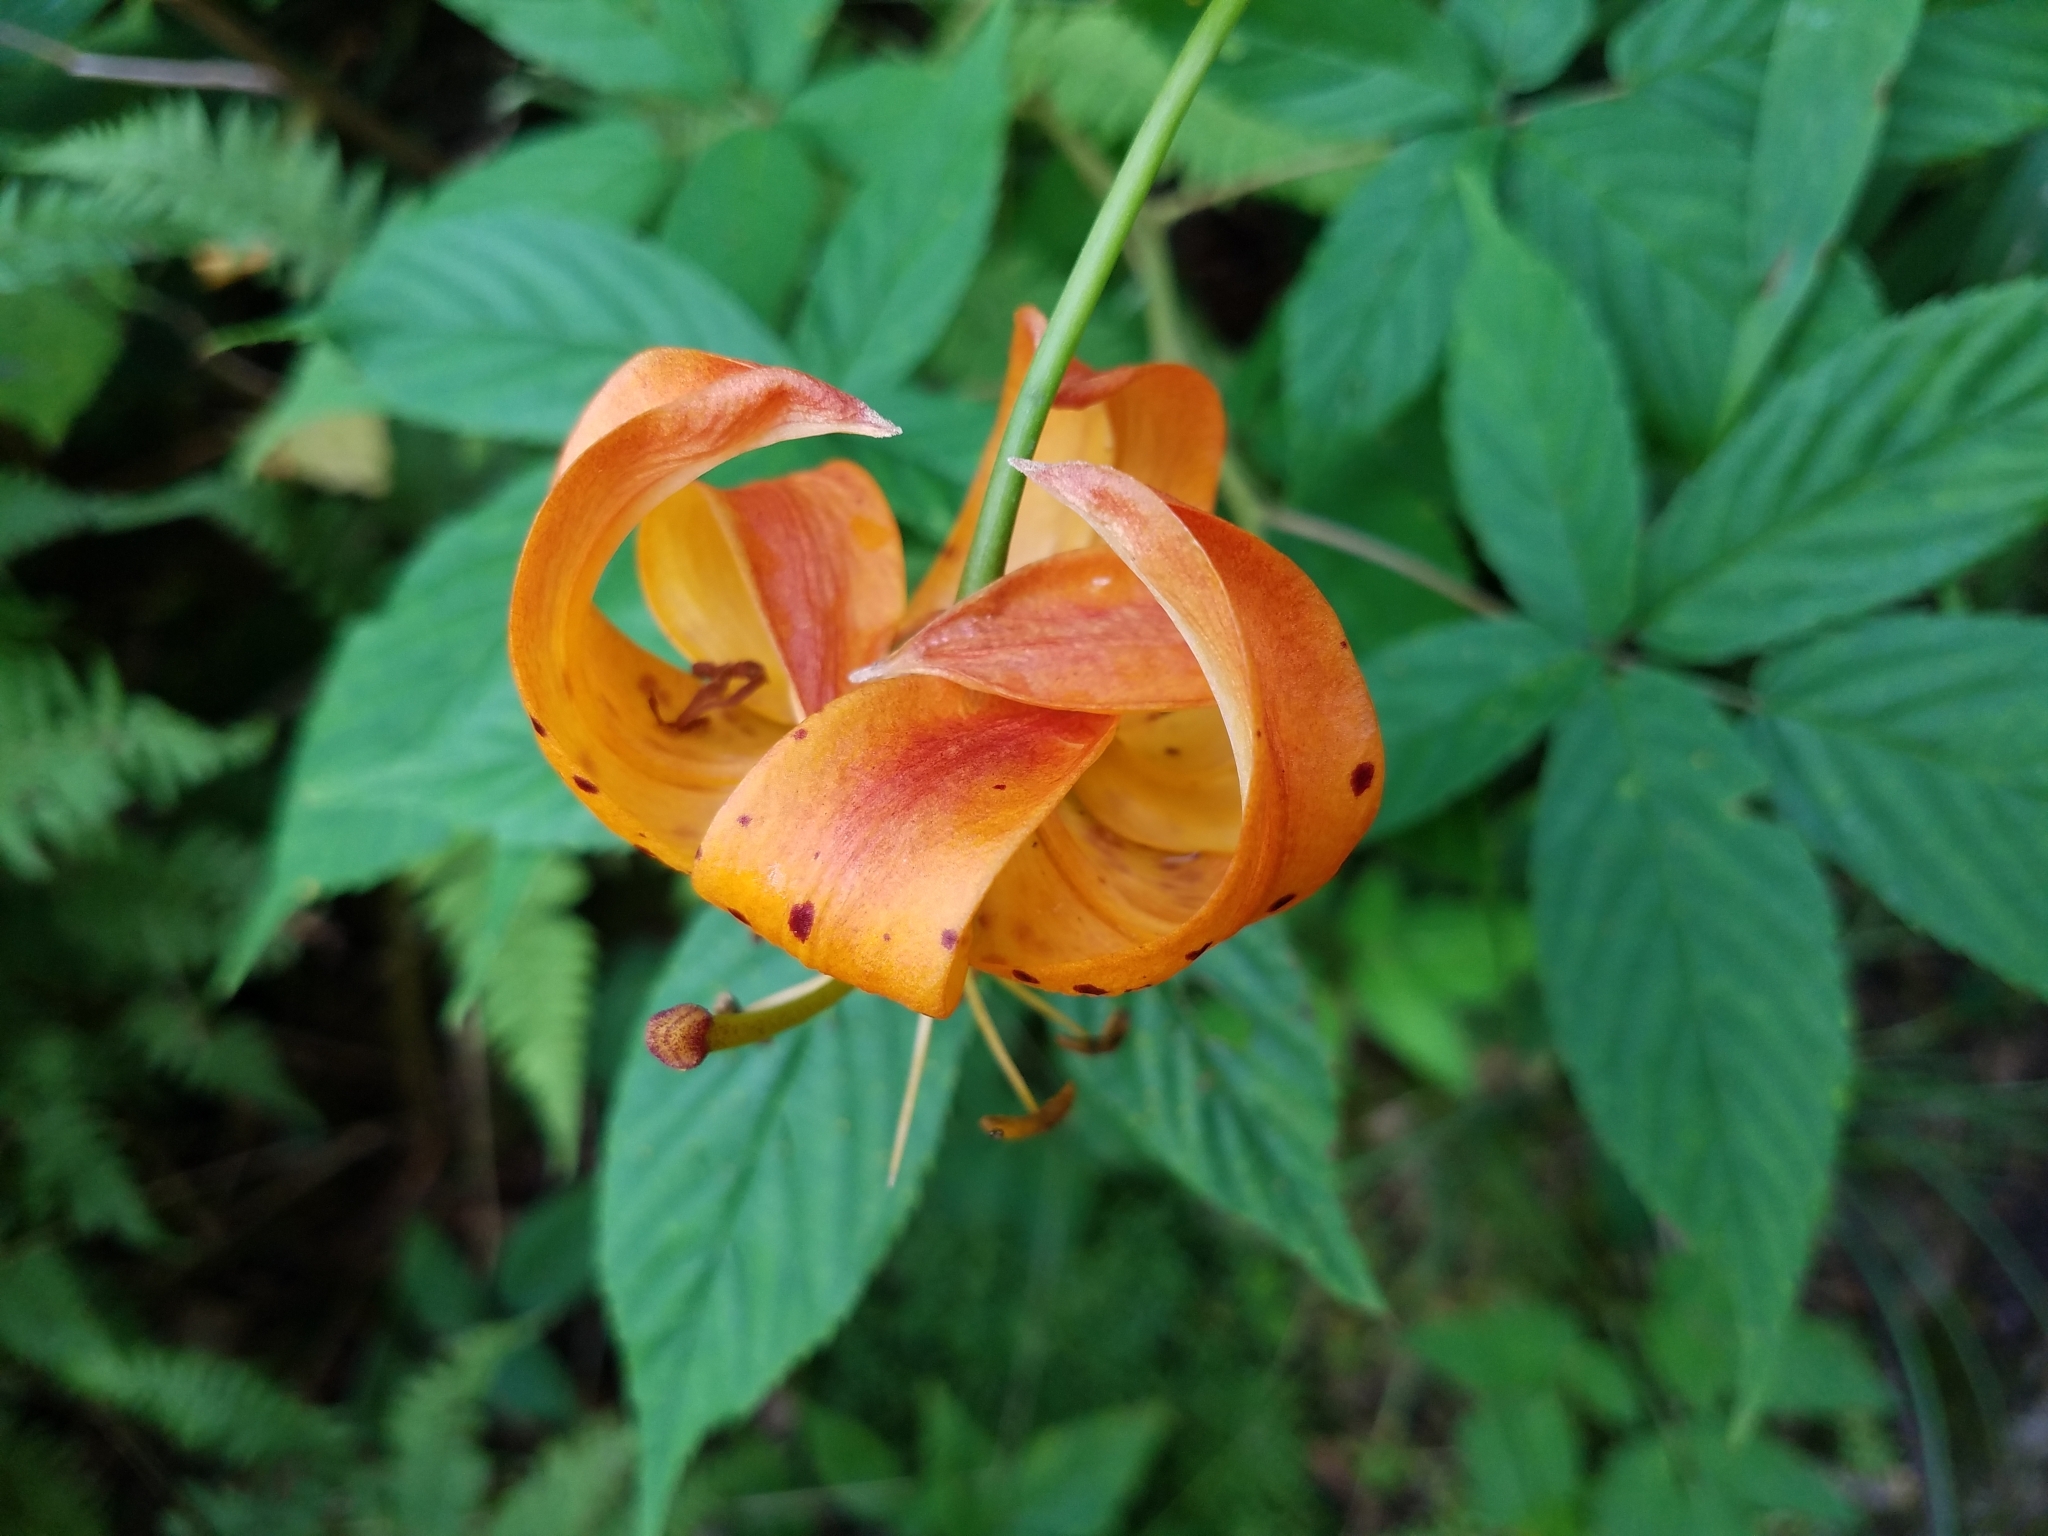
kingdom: Plantae
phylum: Tracheophyta
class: Liliopsida
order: Liliales
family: Liliaceae
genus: Lilium
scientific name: Lilium superbum
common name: American turk's-cap lily
